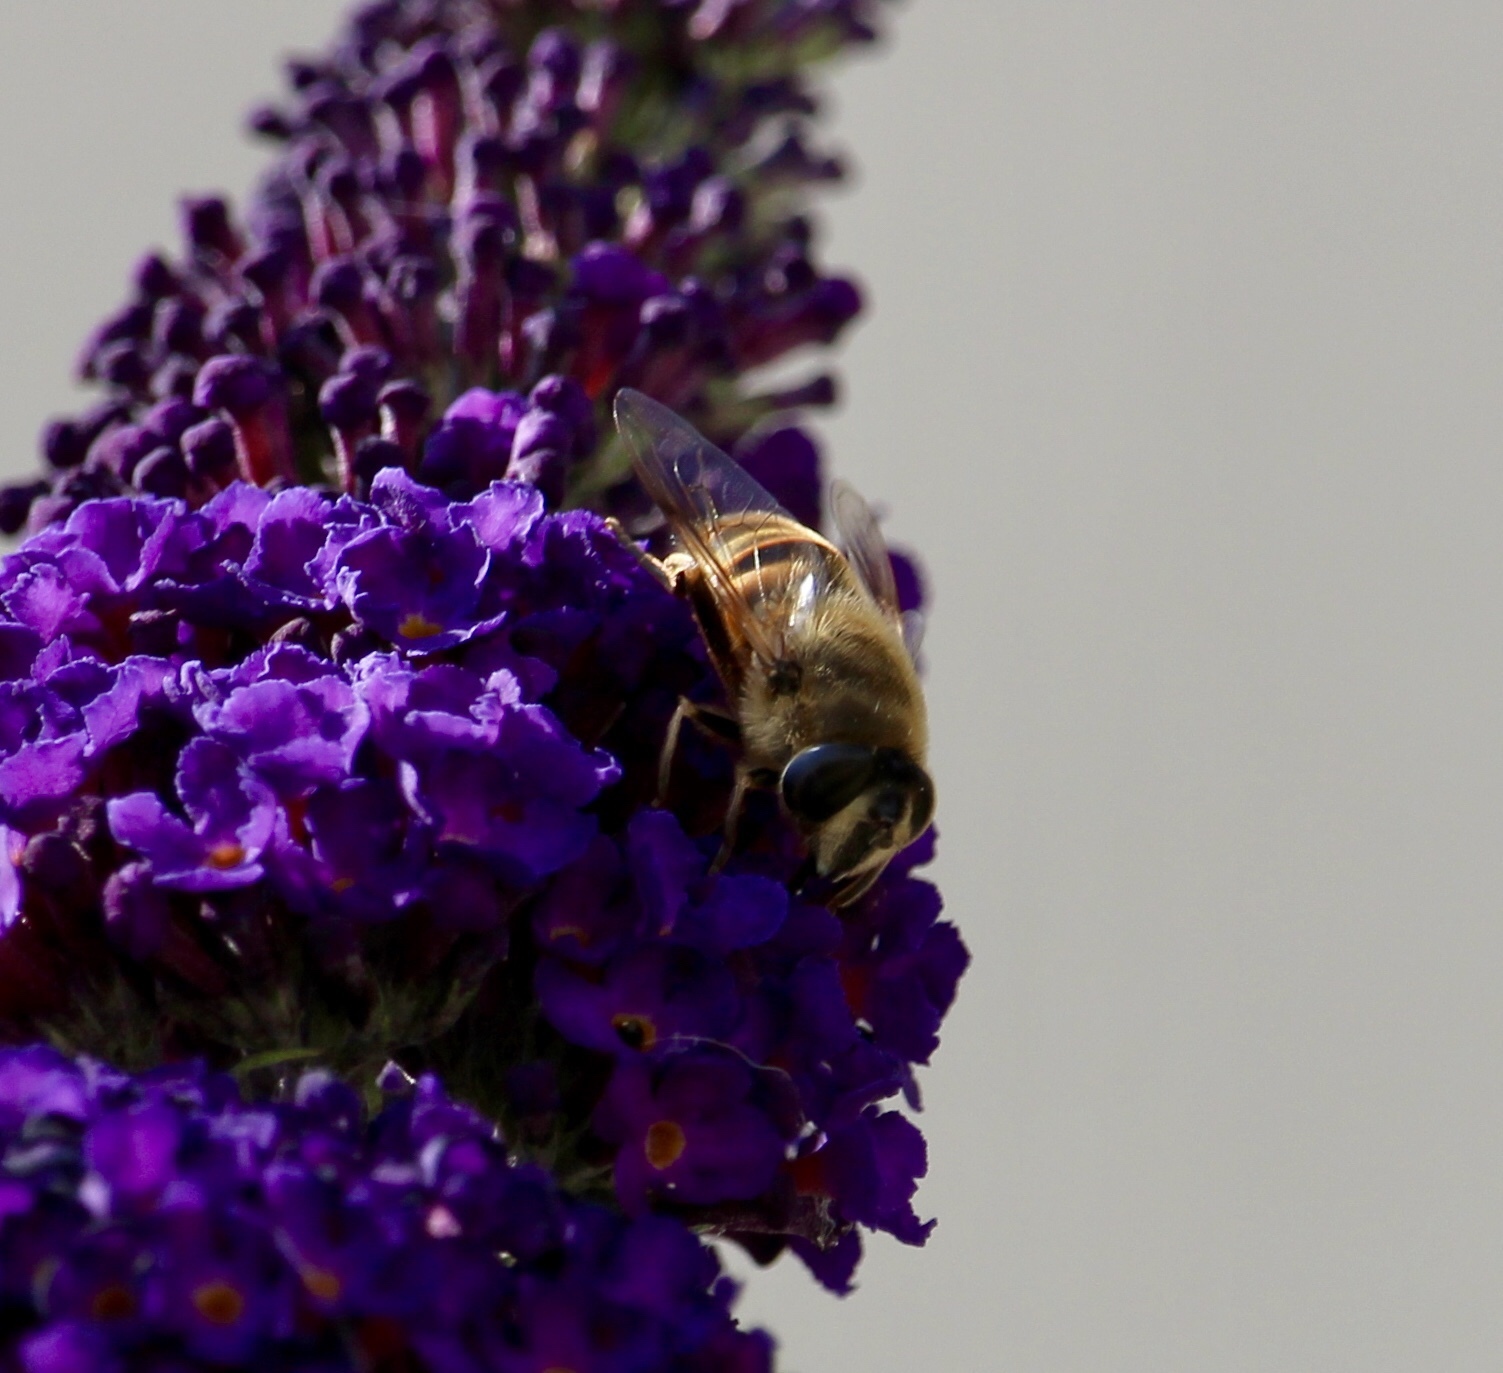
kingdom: Animalia
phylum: Arthropoda
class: Insecta
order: Diptera
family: Syrphidae
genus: Eristalis
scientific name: Eristalis tenax
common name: Drone fly
